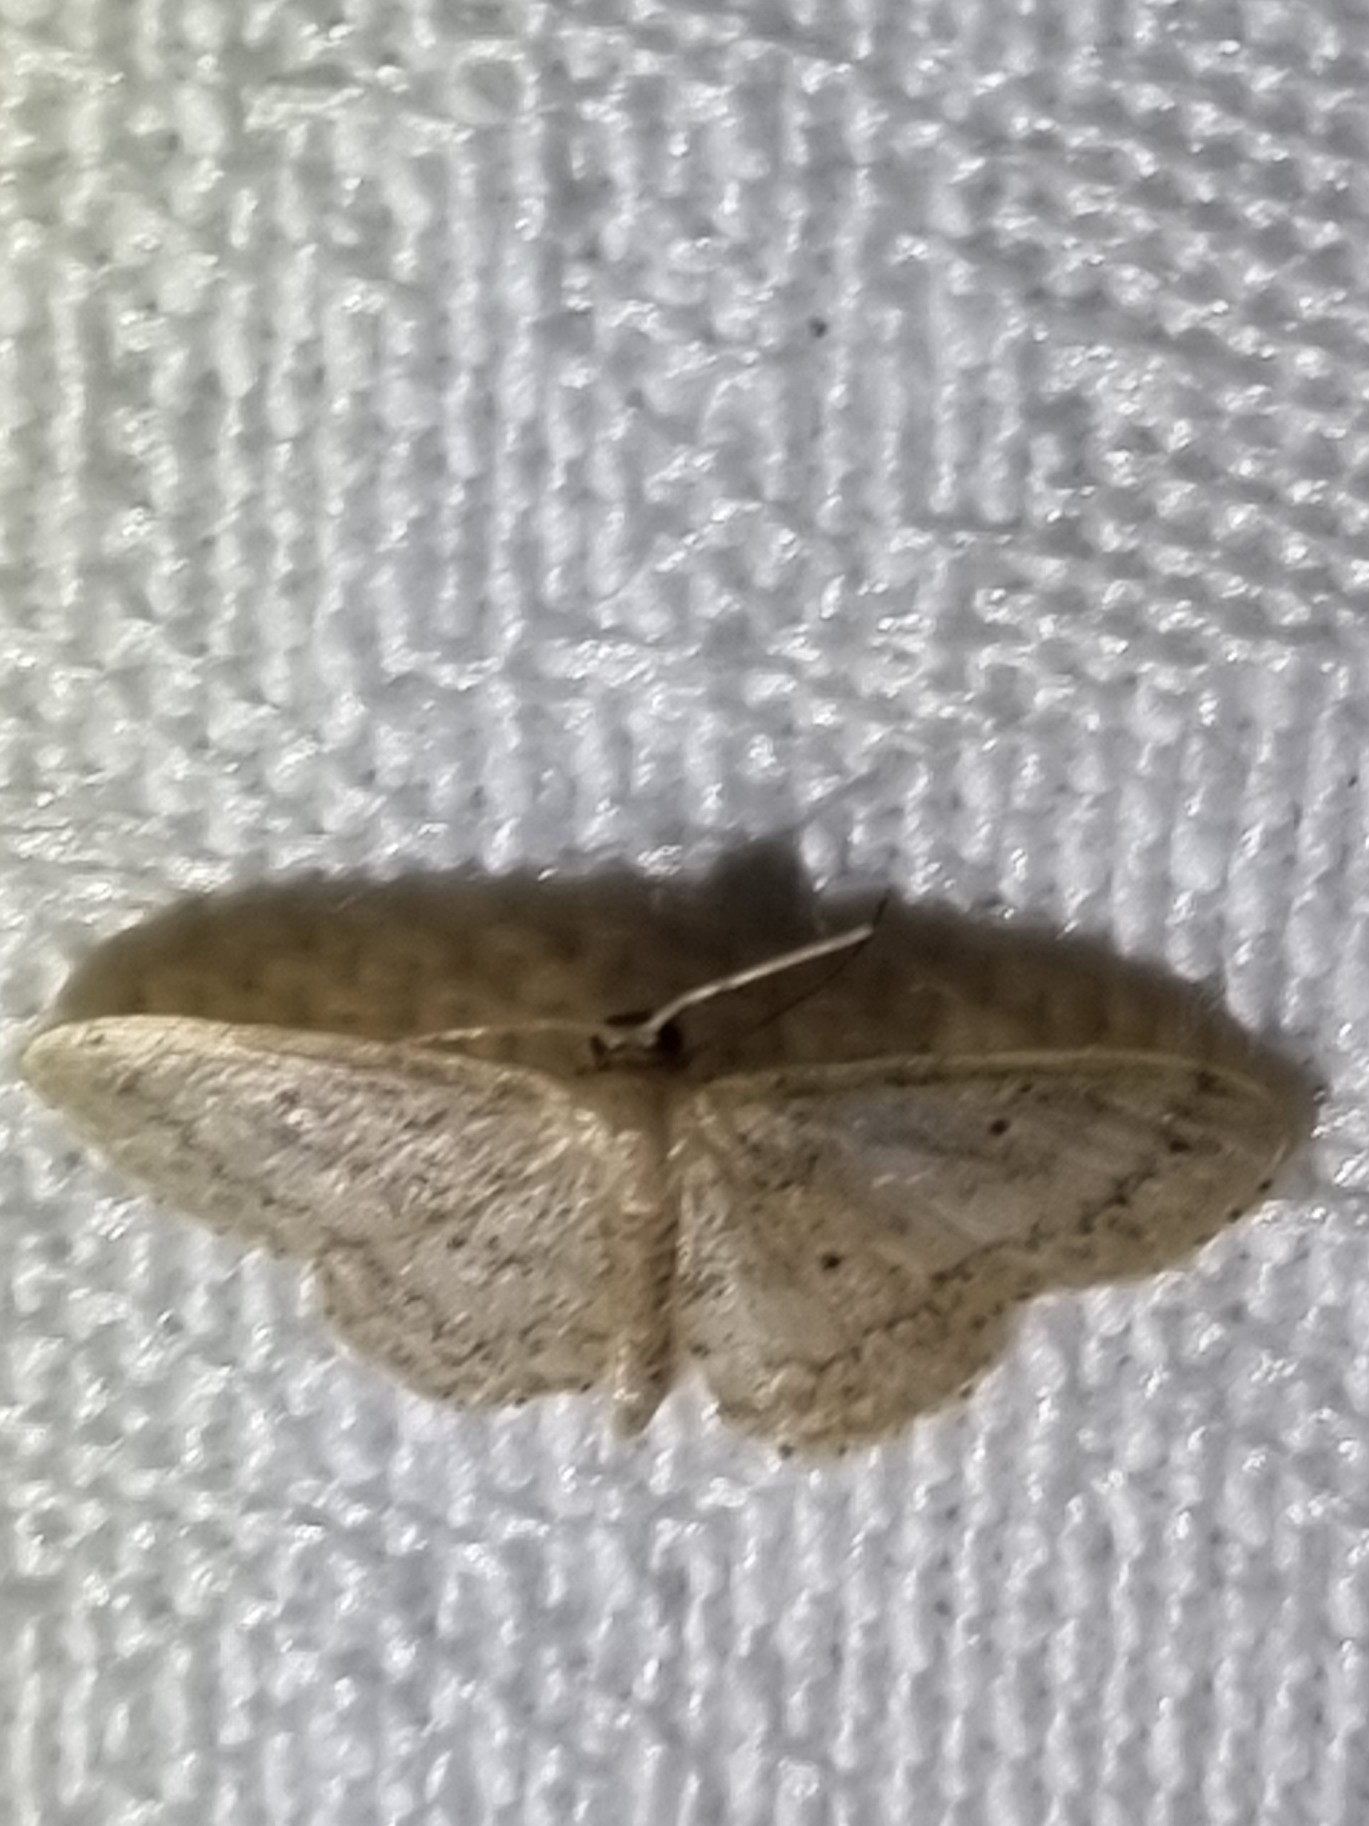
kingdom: Animalia
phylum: Arthropoda
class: Insecta
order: Lepidoptera
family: Geometridae
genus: Idaea
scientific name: Idaea elaphrodes
